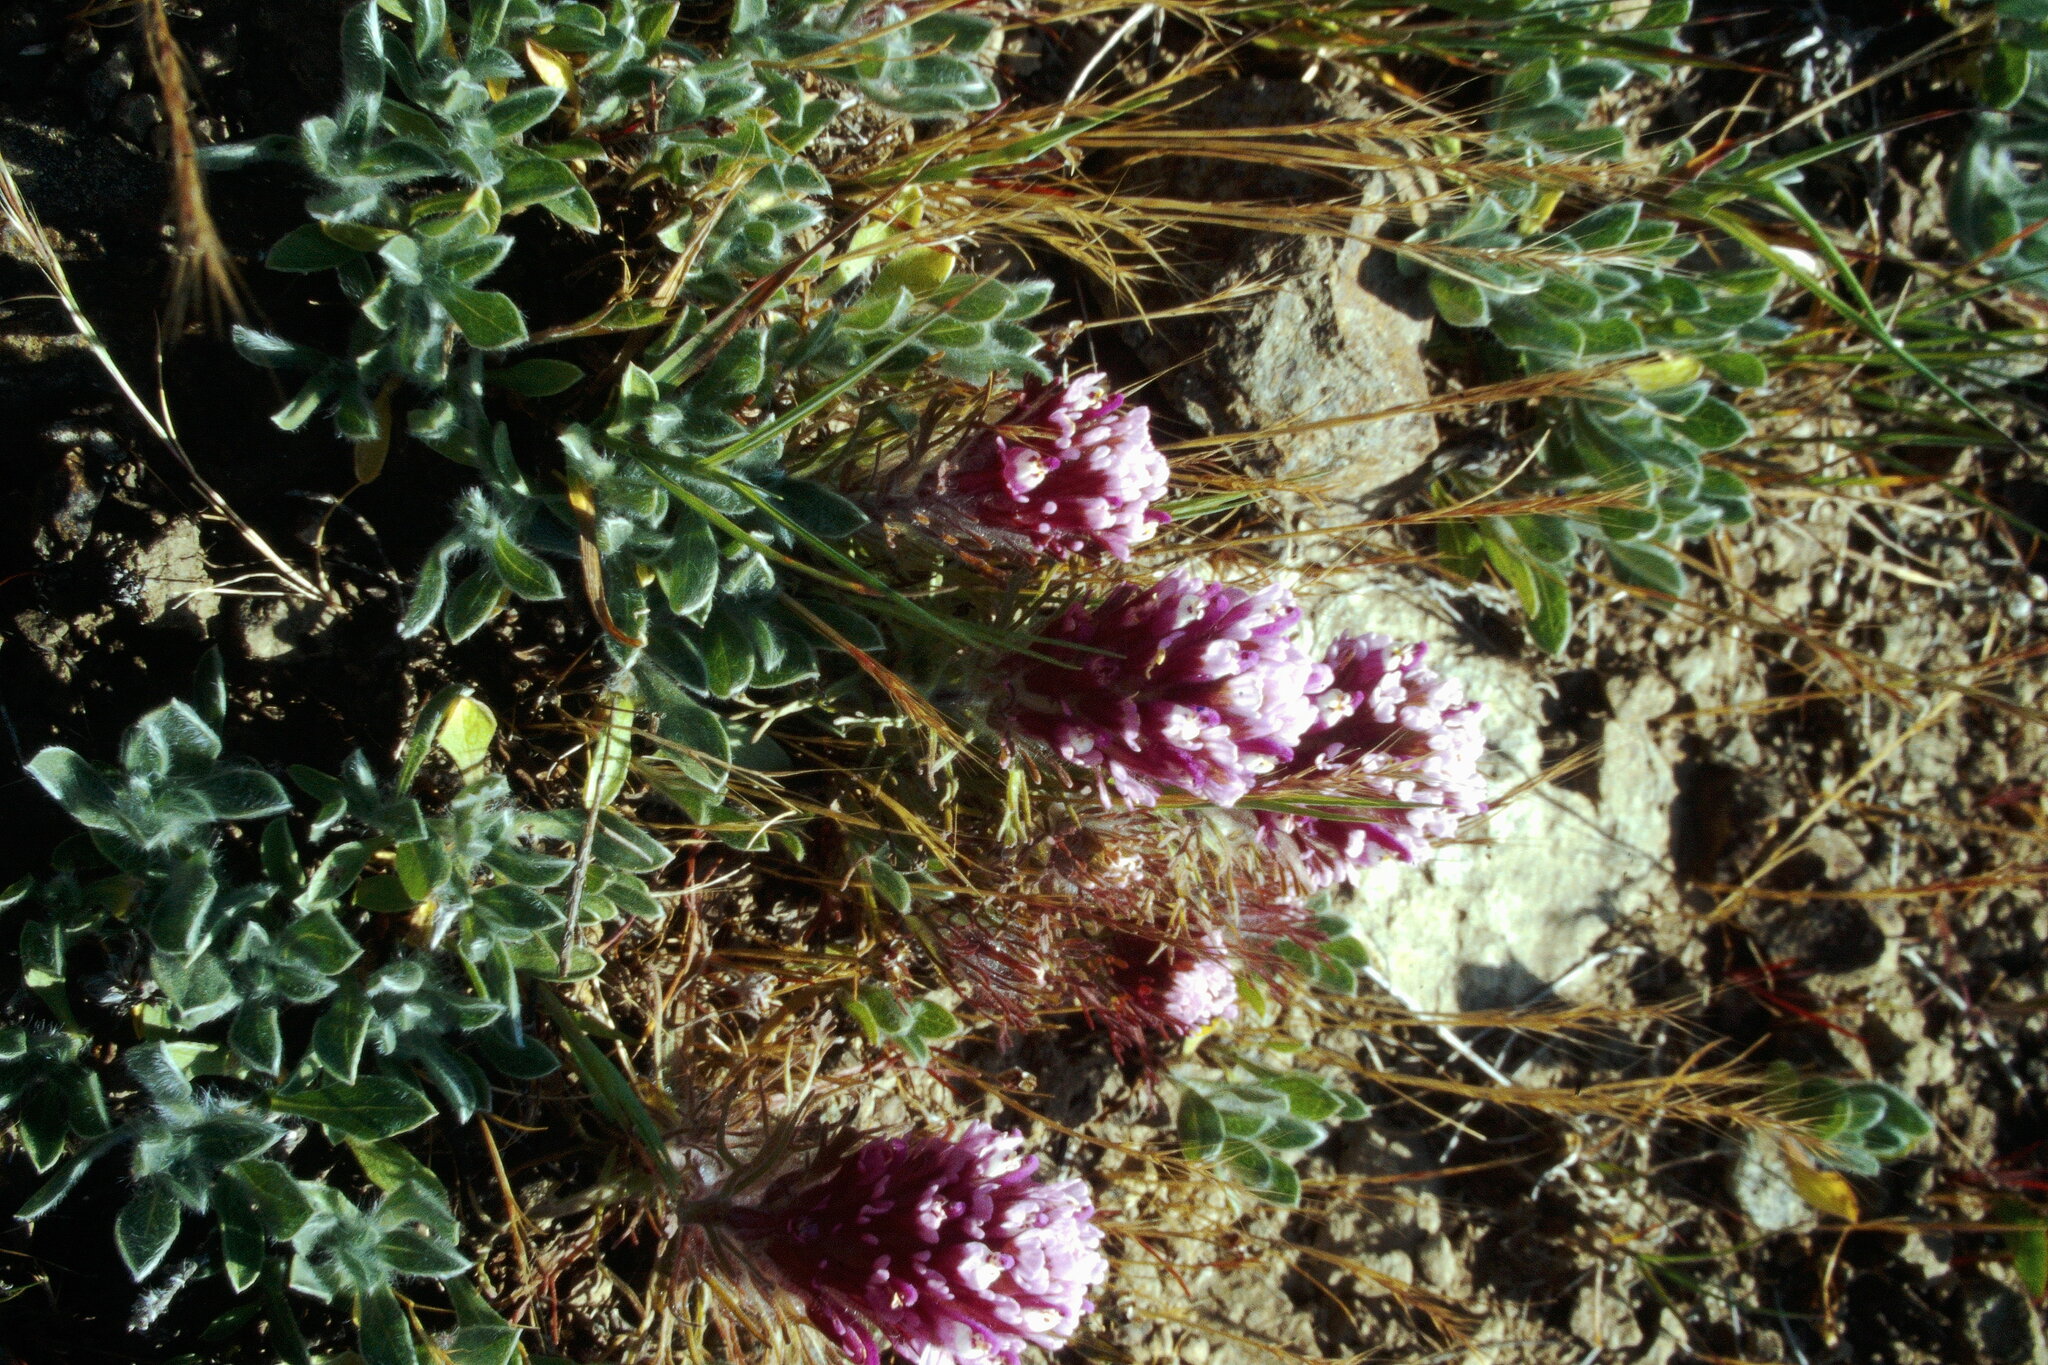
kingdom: Plantae
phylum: Tracheophyta
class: Magnoliopsida
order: Lamiales
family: Orobanchaceae
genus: Castilleja
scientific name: Castilleja exserta
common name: Purple owl-clover
